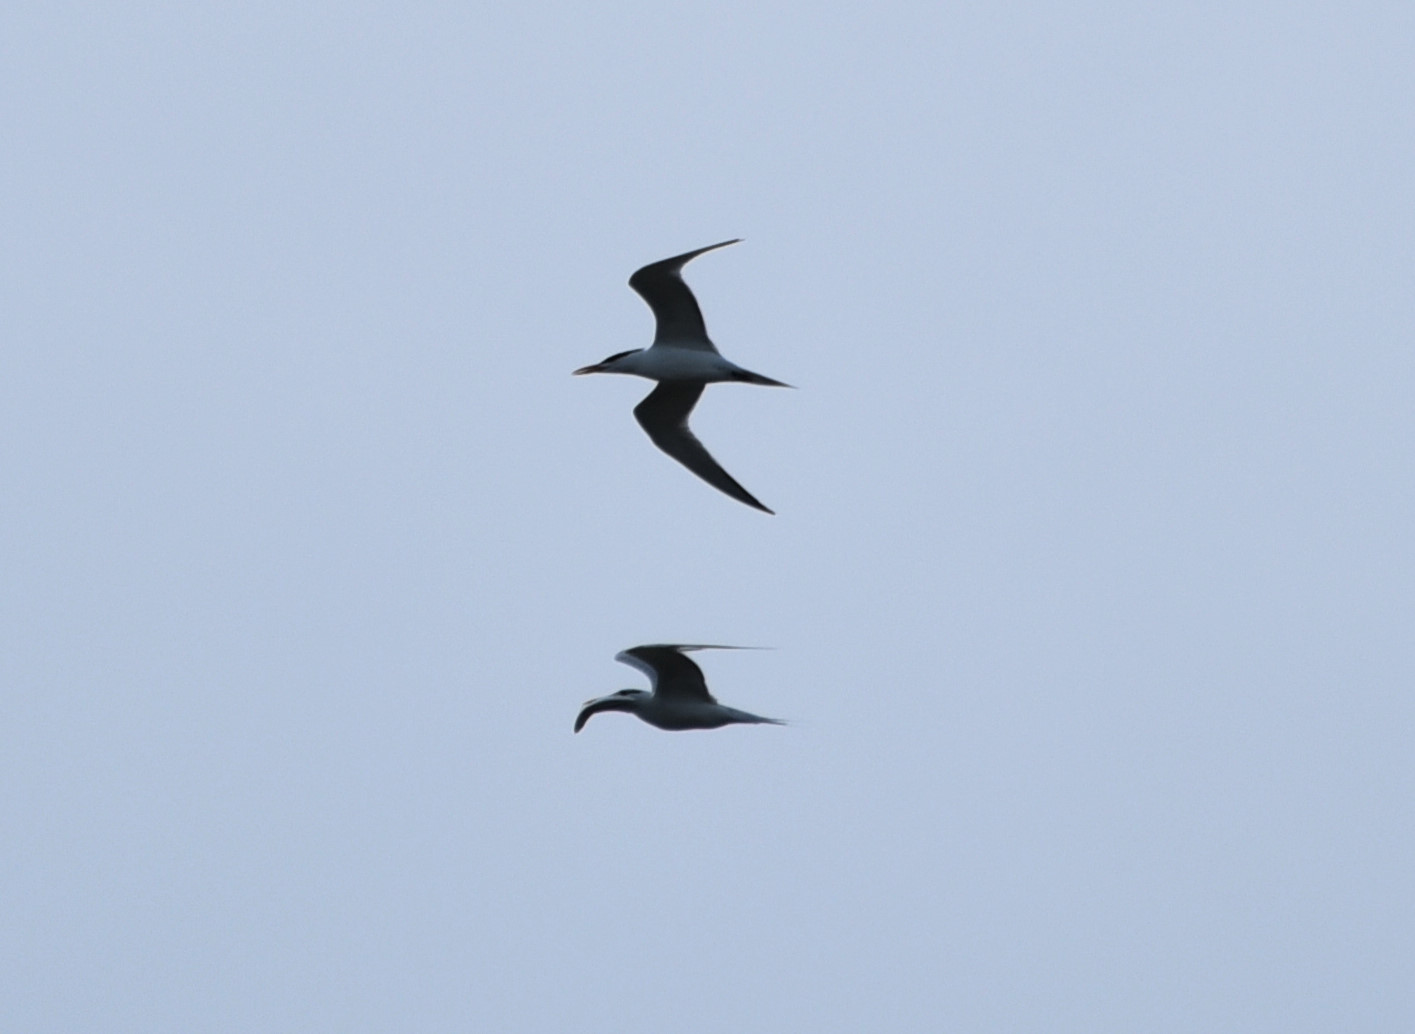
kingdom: Animalia
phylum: Chordata
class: Aves
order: Charadriiformes
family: Laridae
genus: Thalasseus
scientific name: Thalasseus maximus
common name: Royal tern
